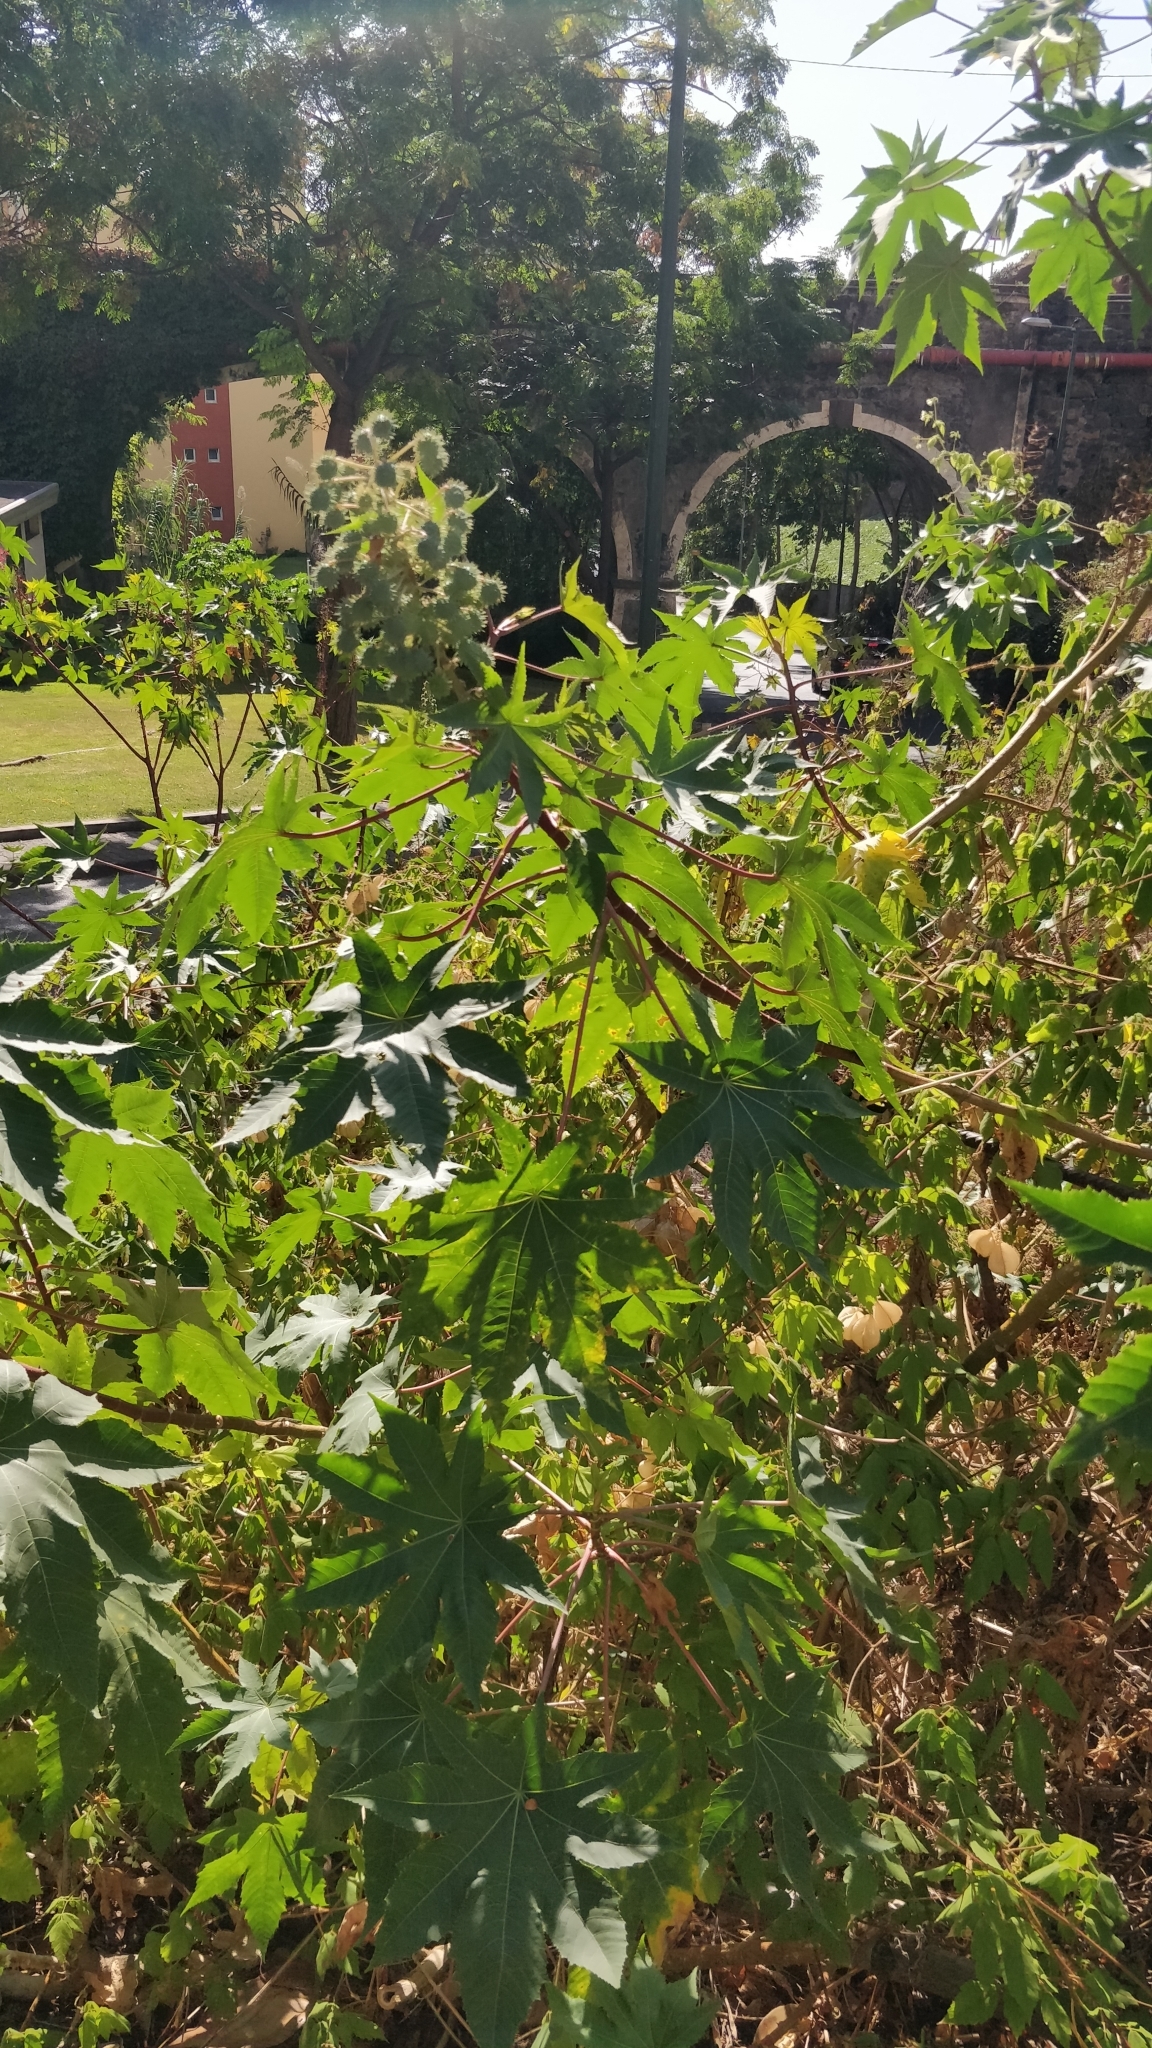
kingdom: Plantae
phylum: Tracheophyta
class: Magnoliopsida
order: Malpighiales
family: Euphorbiaceae
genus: Ricinus
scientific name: Ricinus communis
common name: Castor-oil-plant
